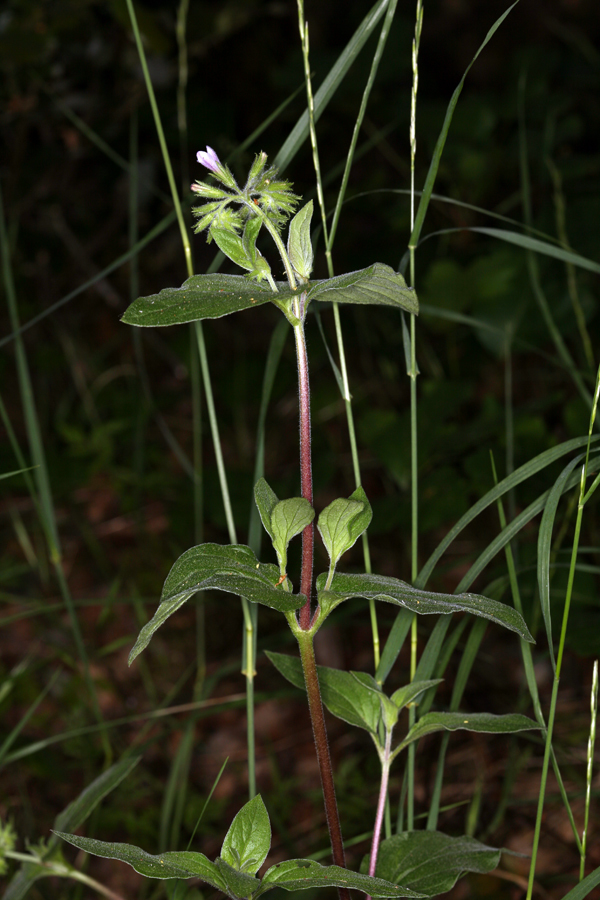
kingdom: Plantae
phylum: Tracheophyta
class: Magnoliopsida
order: Boraginales
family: Hydrophyllaceae
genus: Draperia
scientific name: Draperia systyla
